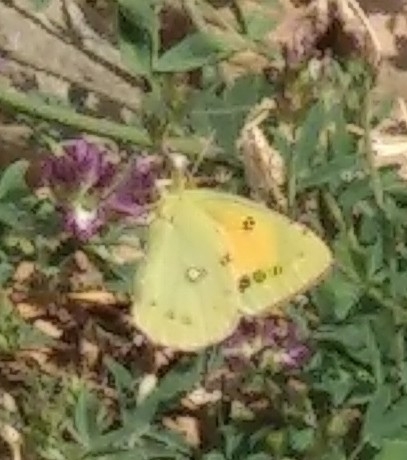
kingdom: Animalia
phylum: Arthropoda
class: Insecta
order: Lepidoptera
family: Pieridae
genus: Colias
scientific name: Colias croceus
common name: Clouded yellow
